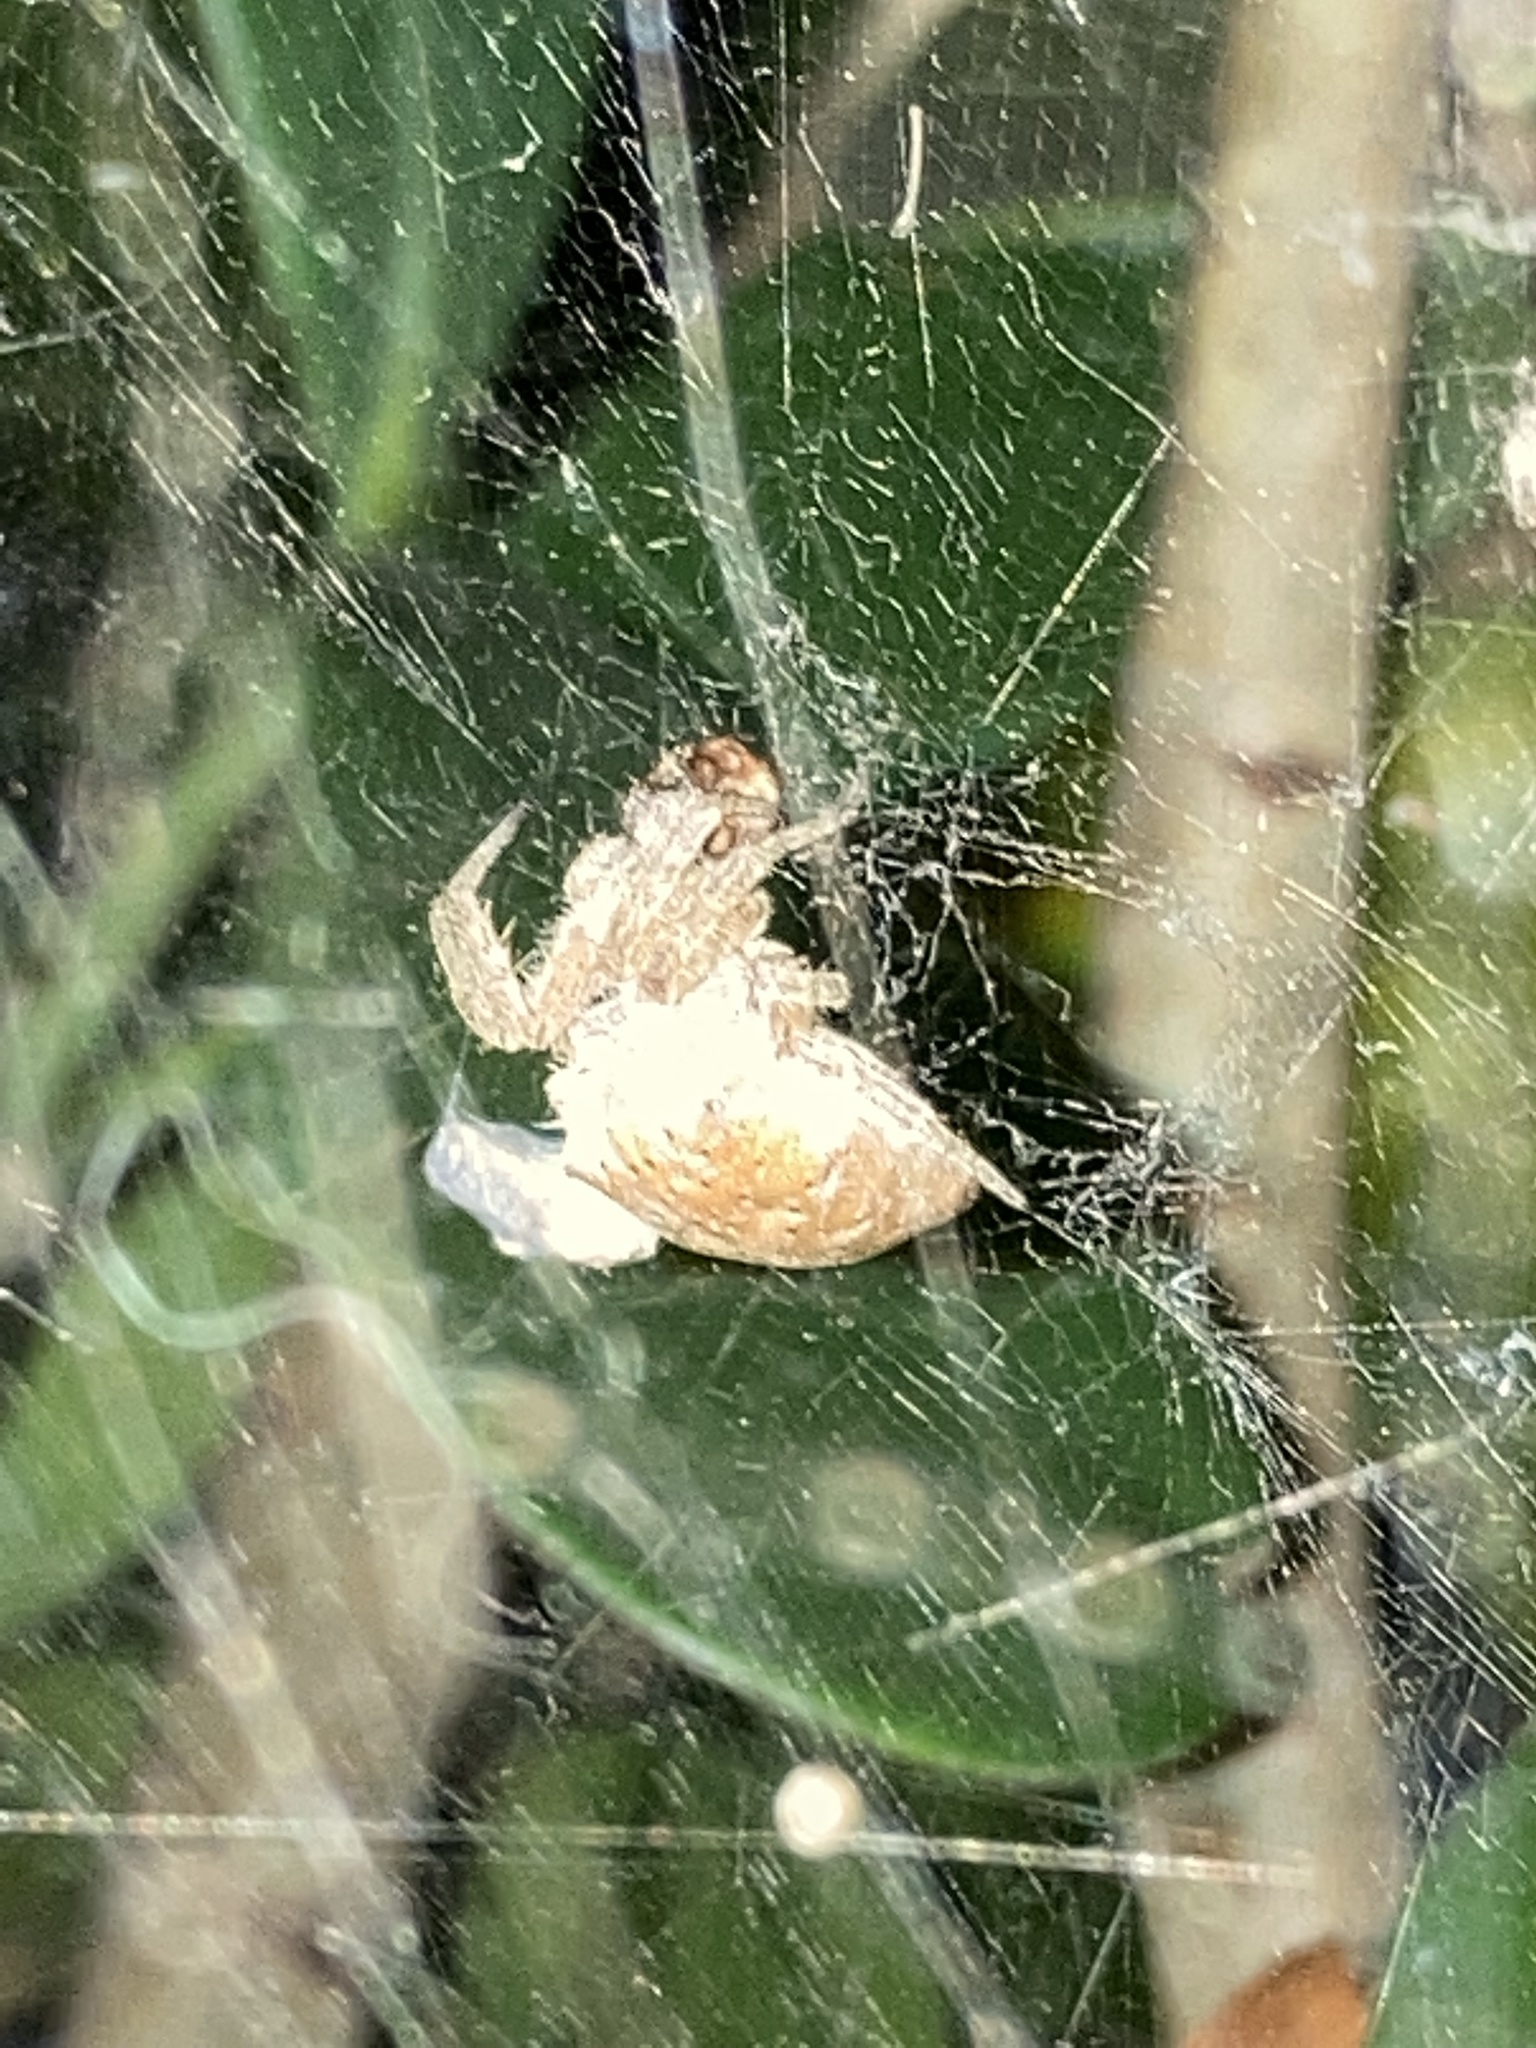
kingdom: Animalia
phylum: Arthropoda
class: Arachnida
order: Araneae
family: Araneidae
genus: Cyrtophora
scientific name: Cyrtophora citricola
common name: Orb weavers
